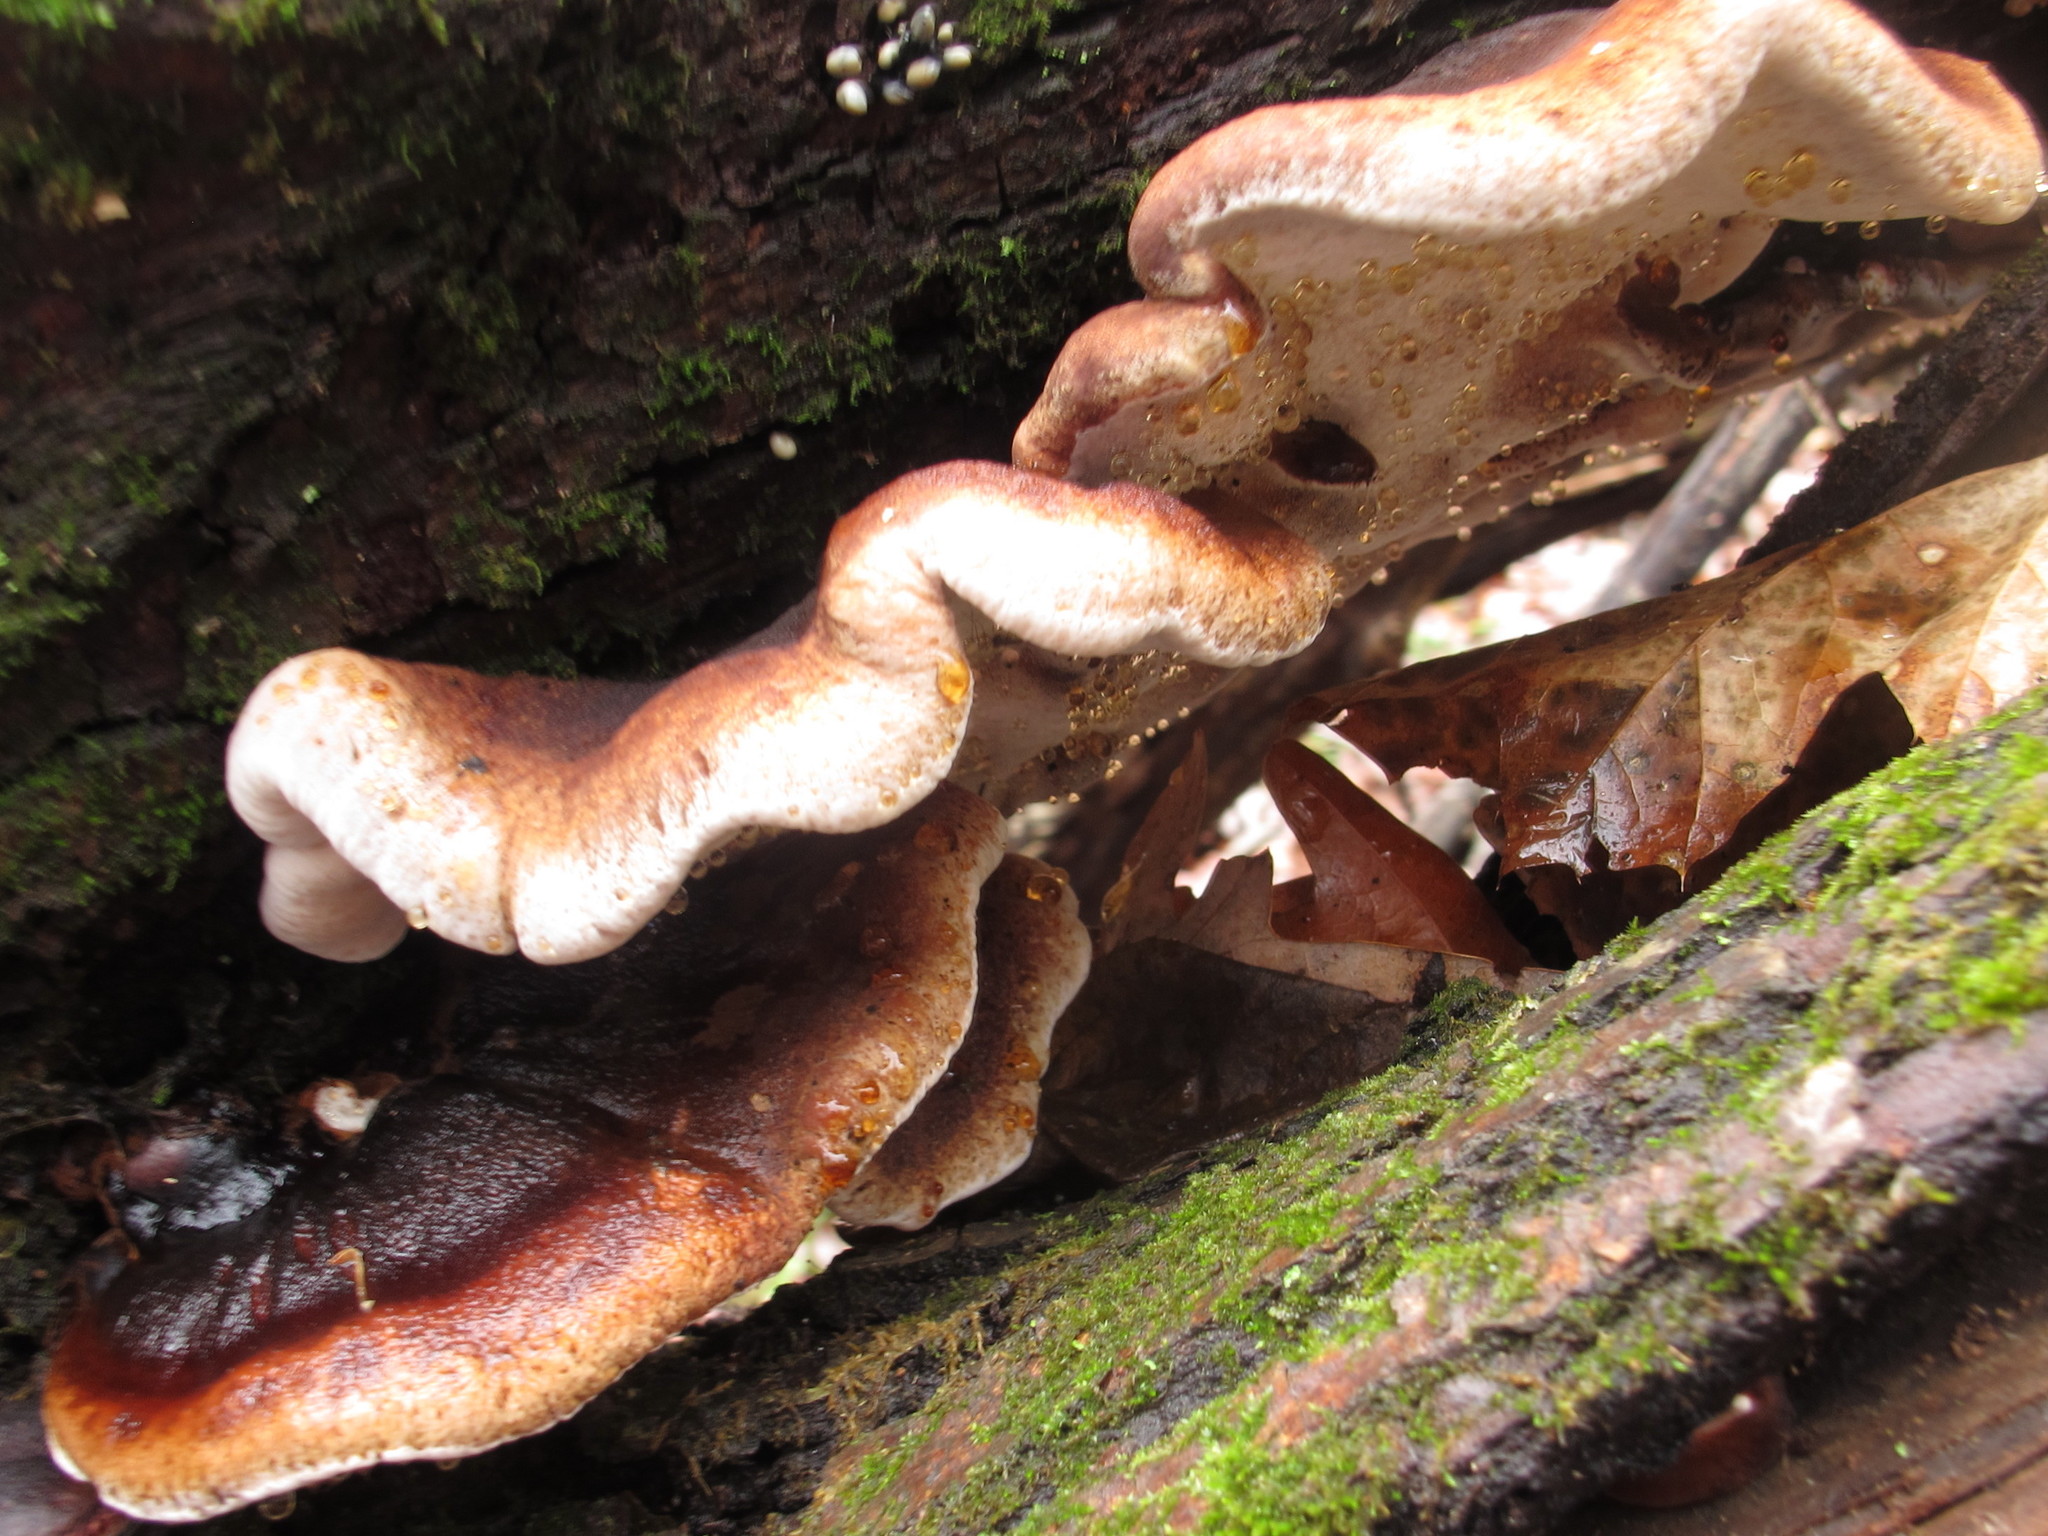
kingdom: Fungi
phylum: Basidiomycota
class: Agaricomycetes
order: Polyporales
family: Ischnodermataceae
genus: Ischnoderma
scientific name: Ischnoderma resinosum
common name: Resinous polypore
